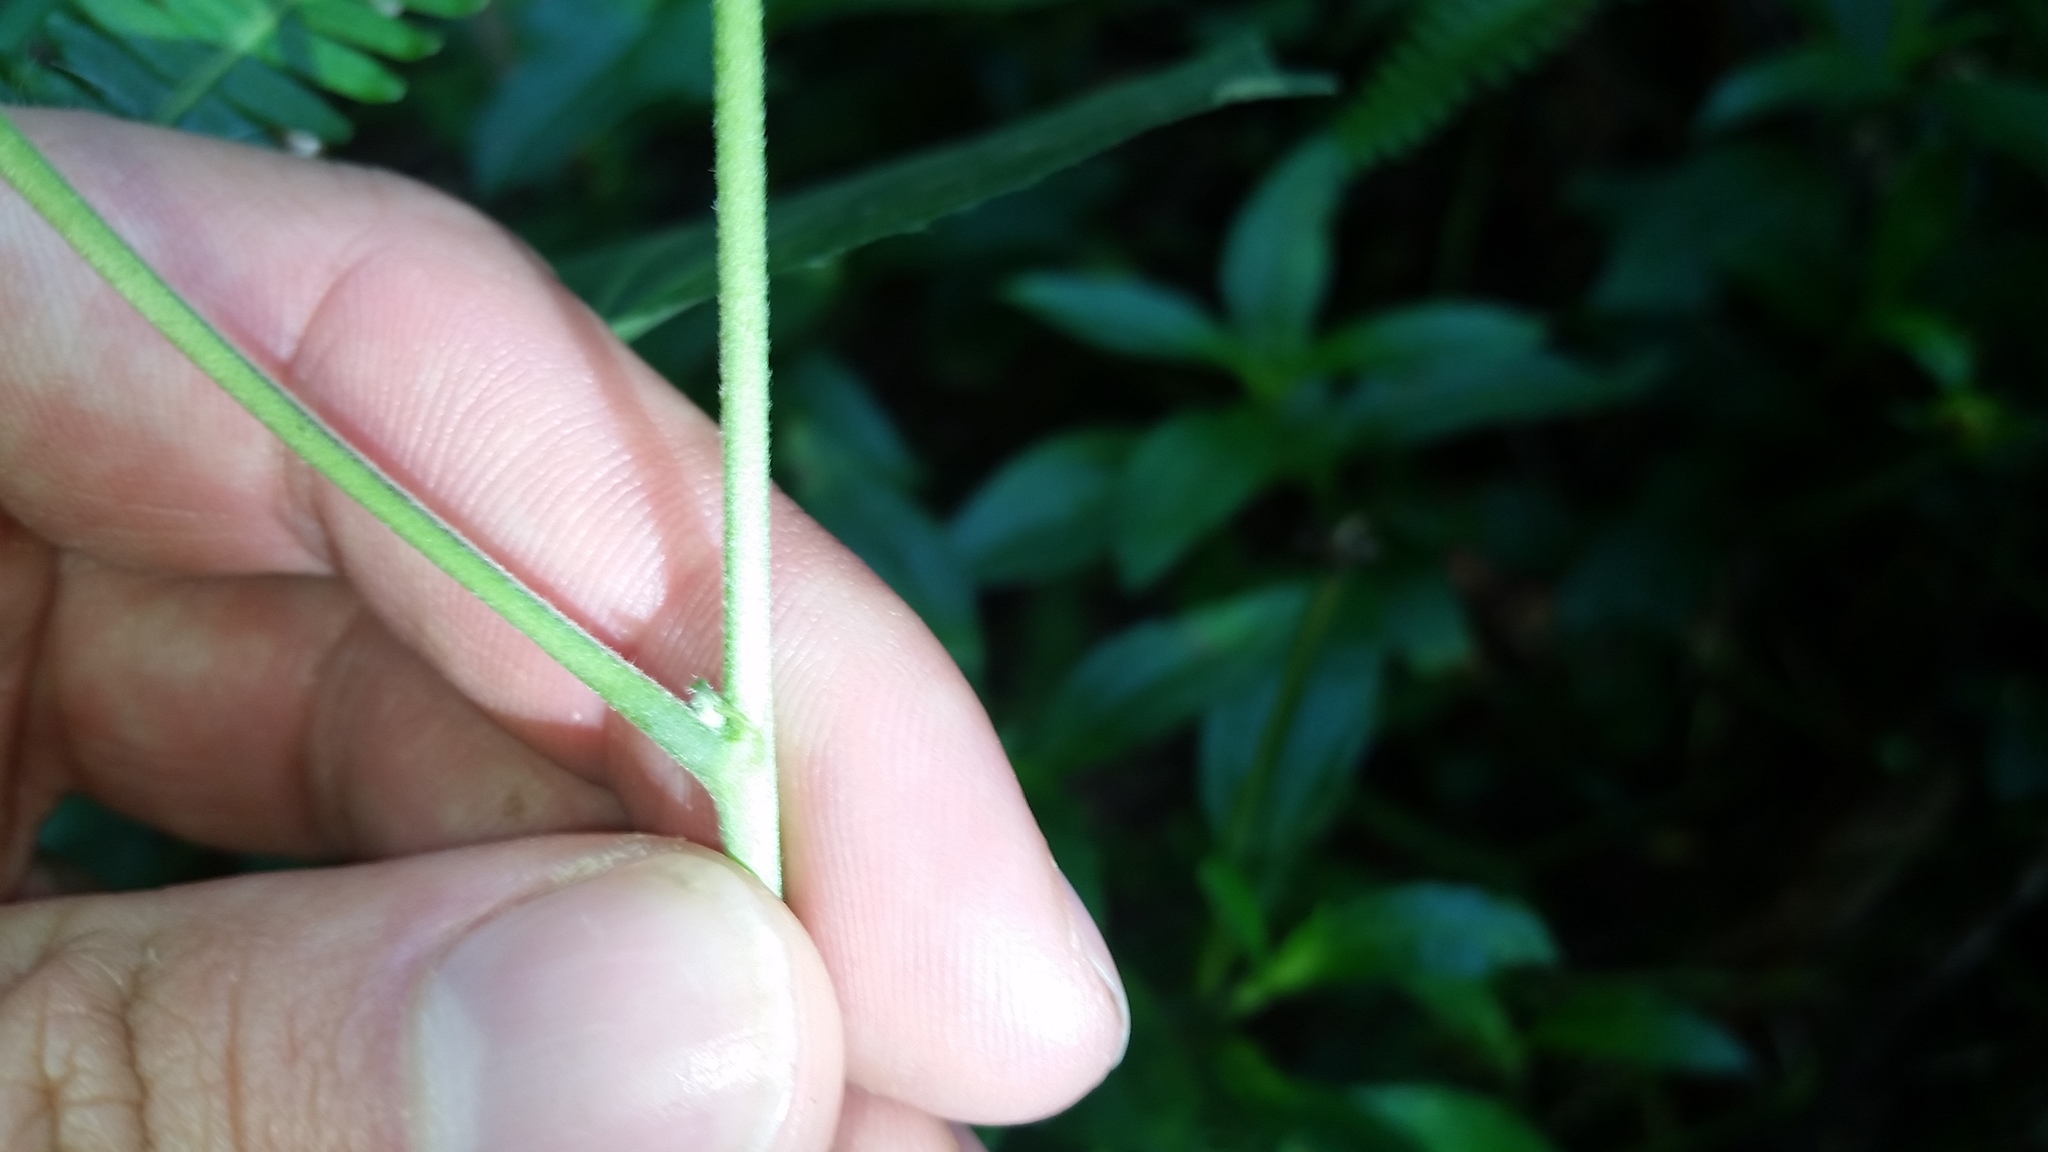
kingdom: Plantae
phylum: Tracheophyta
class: Magnoliopsida
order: Malvales
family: Malvaceae
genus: Urena
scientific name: Urena lobata
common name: Caesarweed
